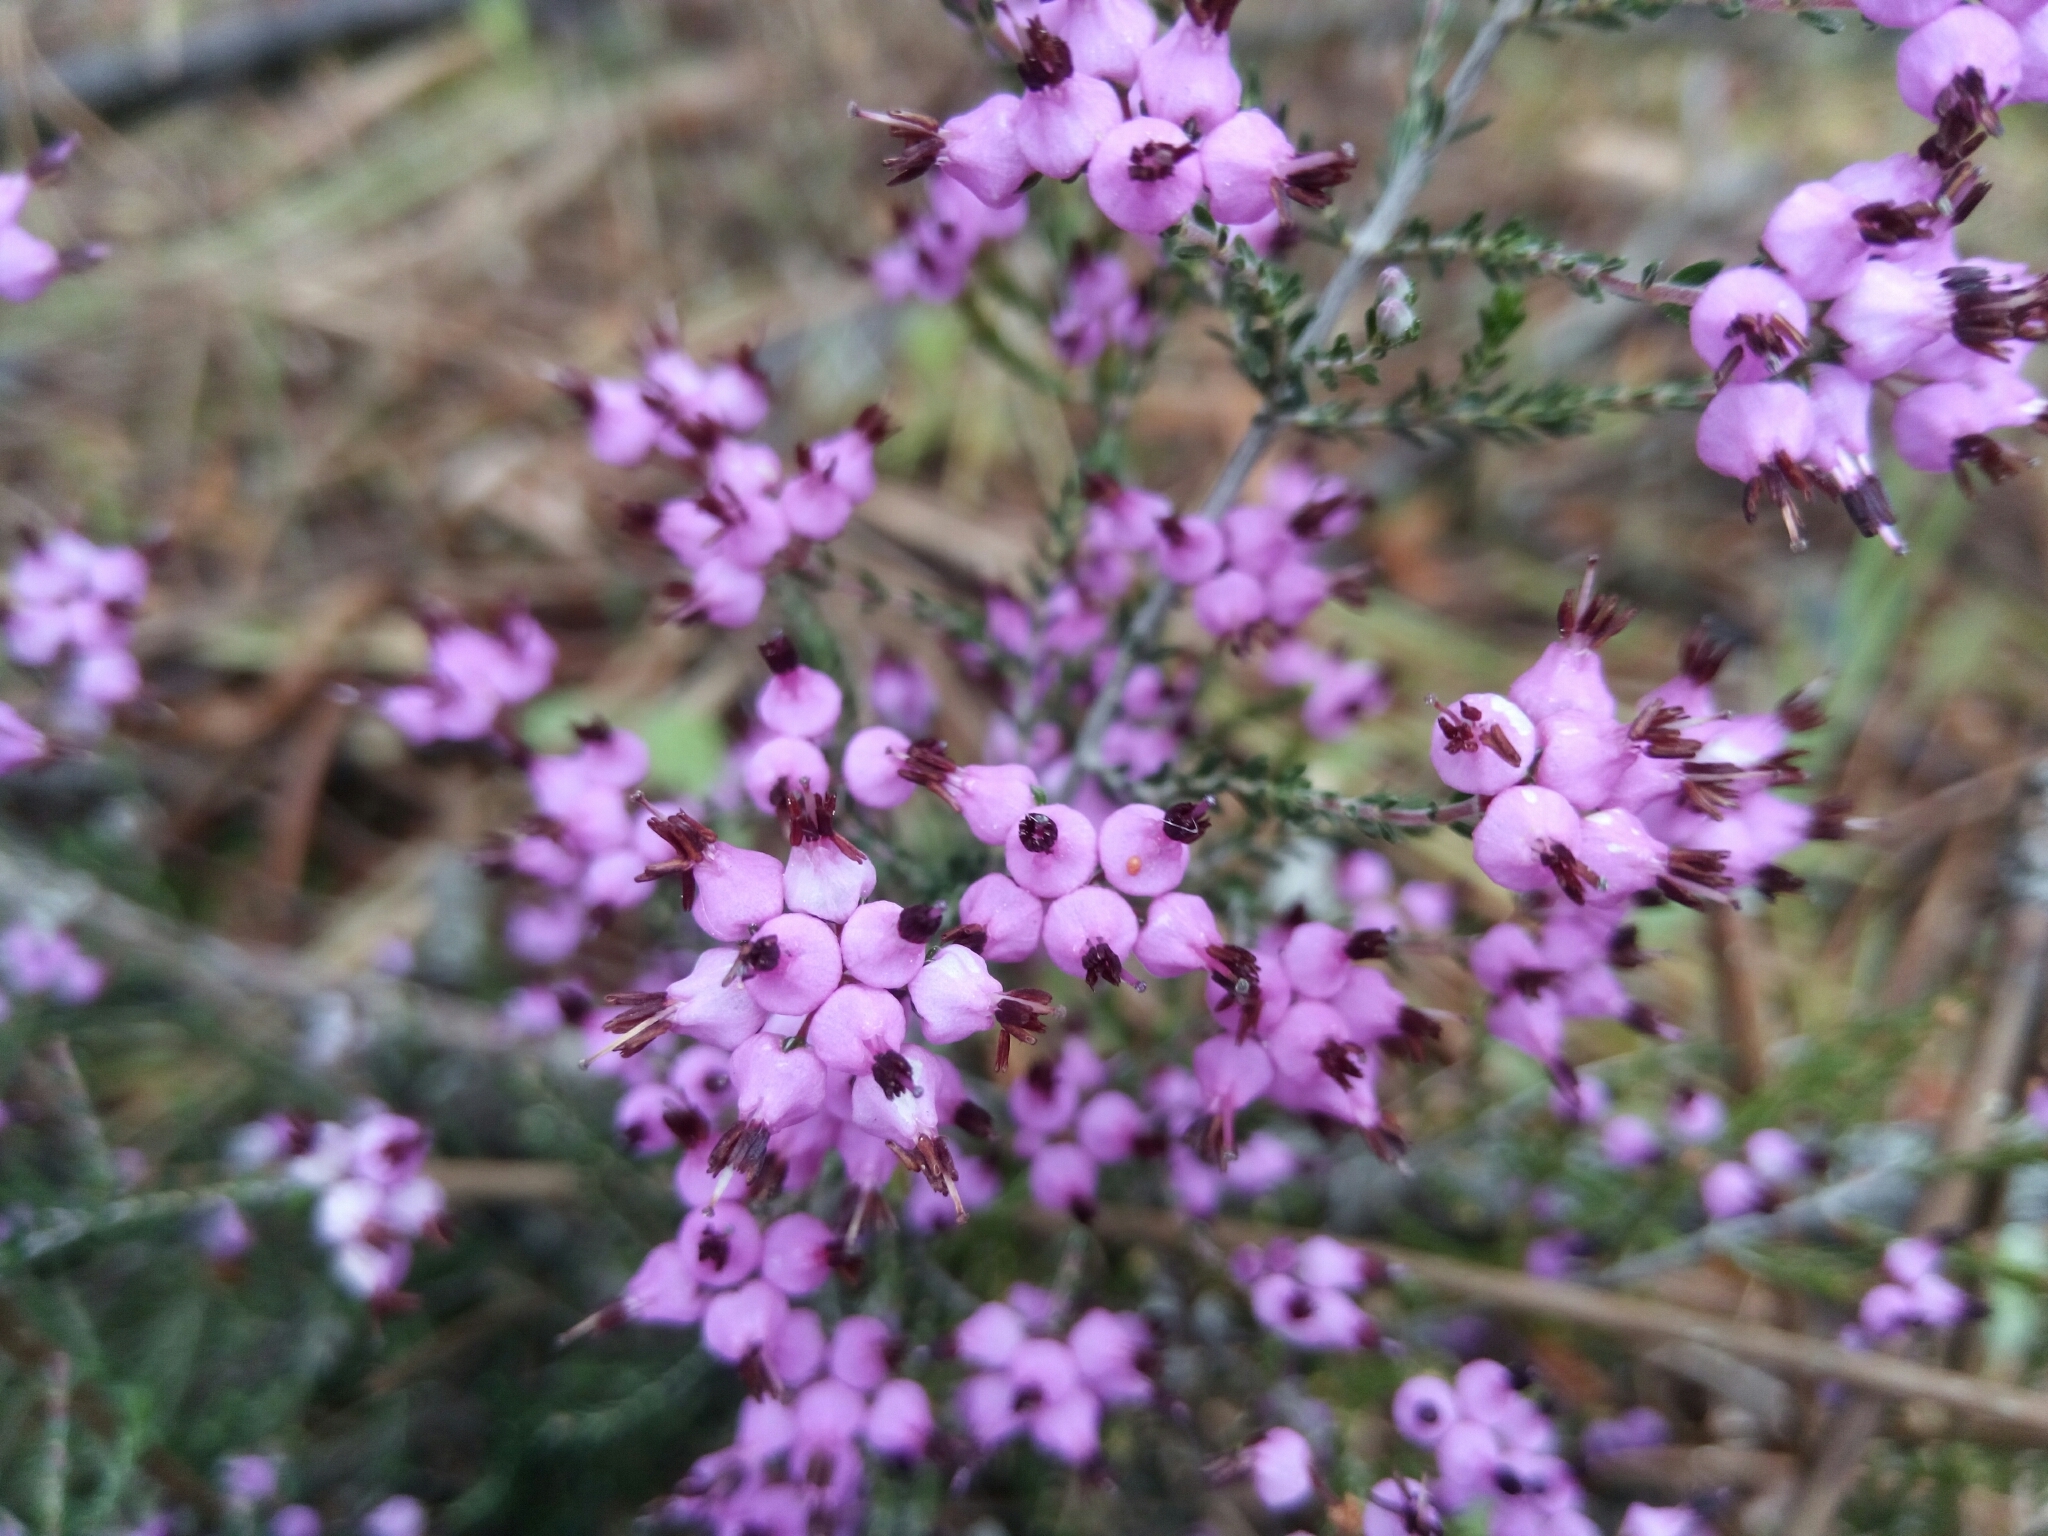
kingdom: Plantae
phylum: Tracheophyta
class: Magnoliopsida
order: Ericales
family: Ericaceae
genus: Erica
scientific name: Erica umbellata
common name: Dwarf spanish heath
